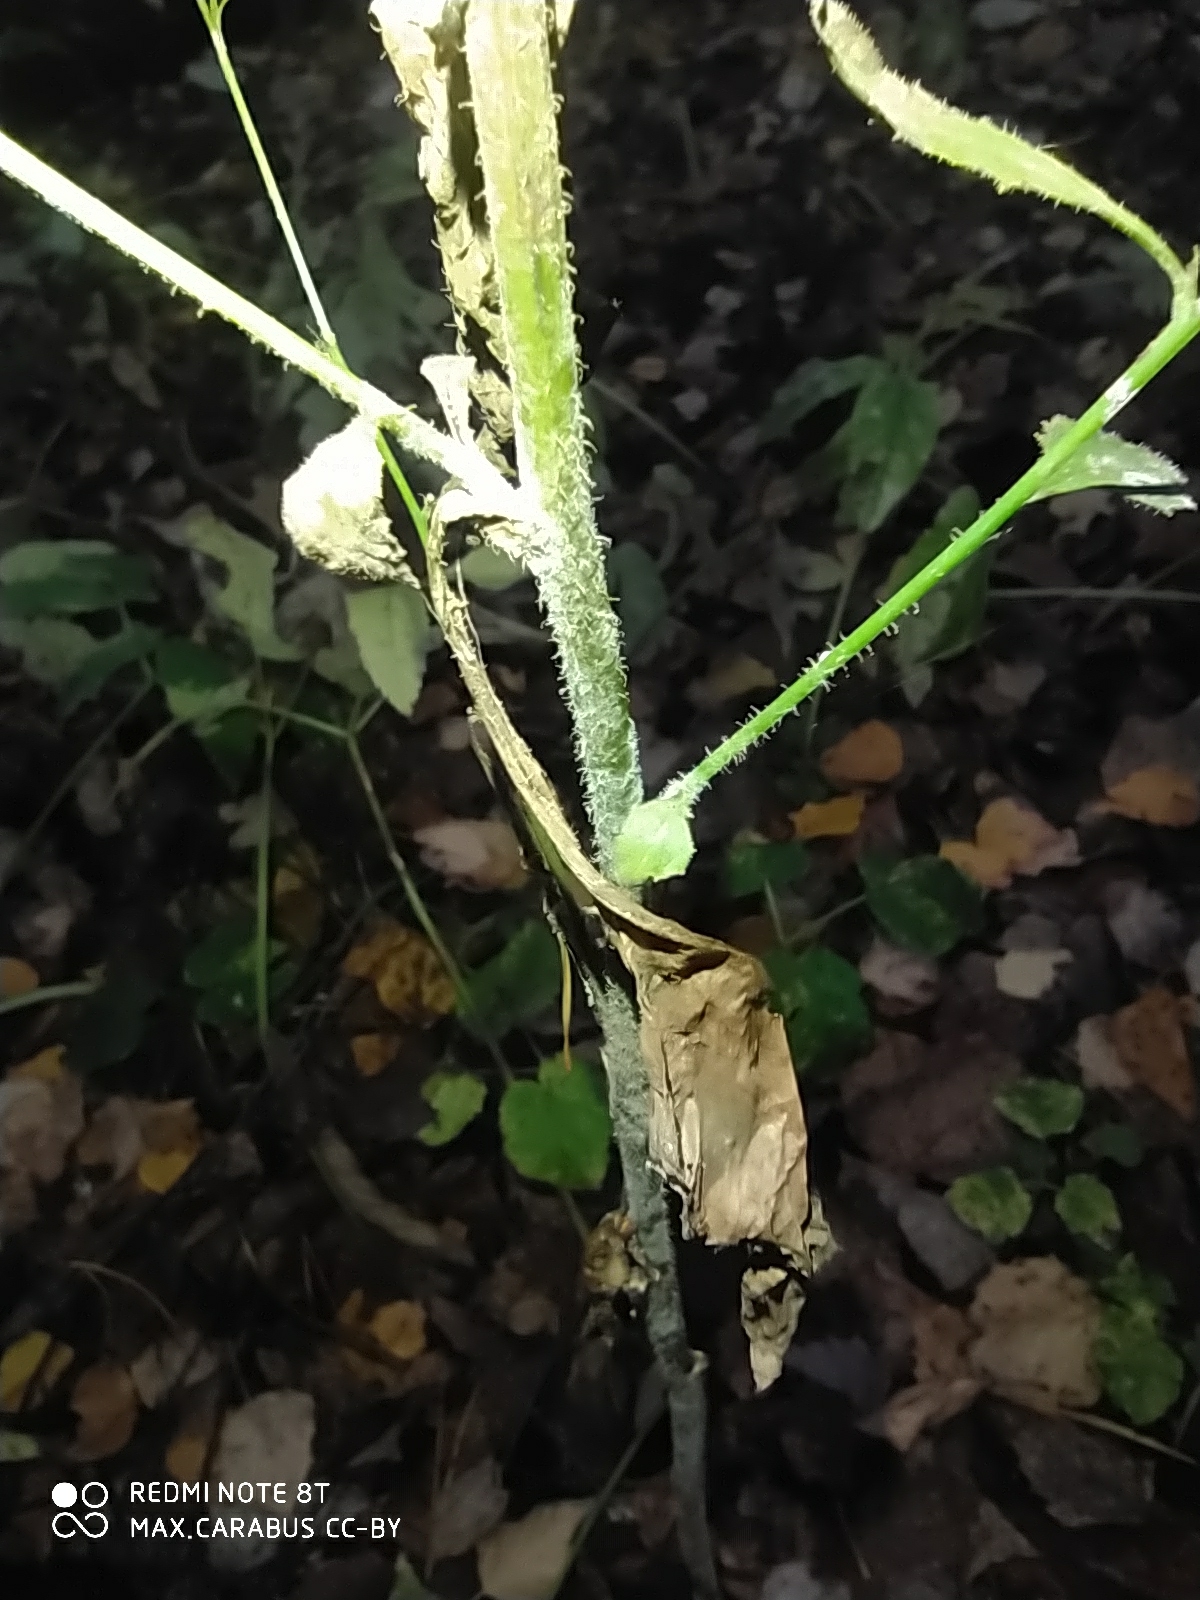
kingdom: Plantae
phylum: Tracheophyta
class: Magnoliopsida
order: Asterales
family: Asteraceae
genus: Lapsana
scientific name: Lapsana communis
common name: Nipplewort
